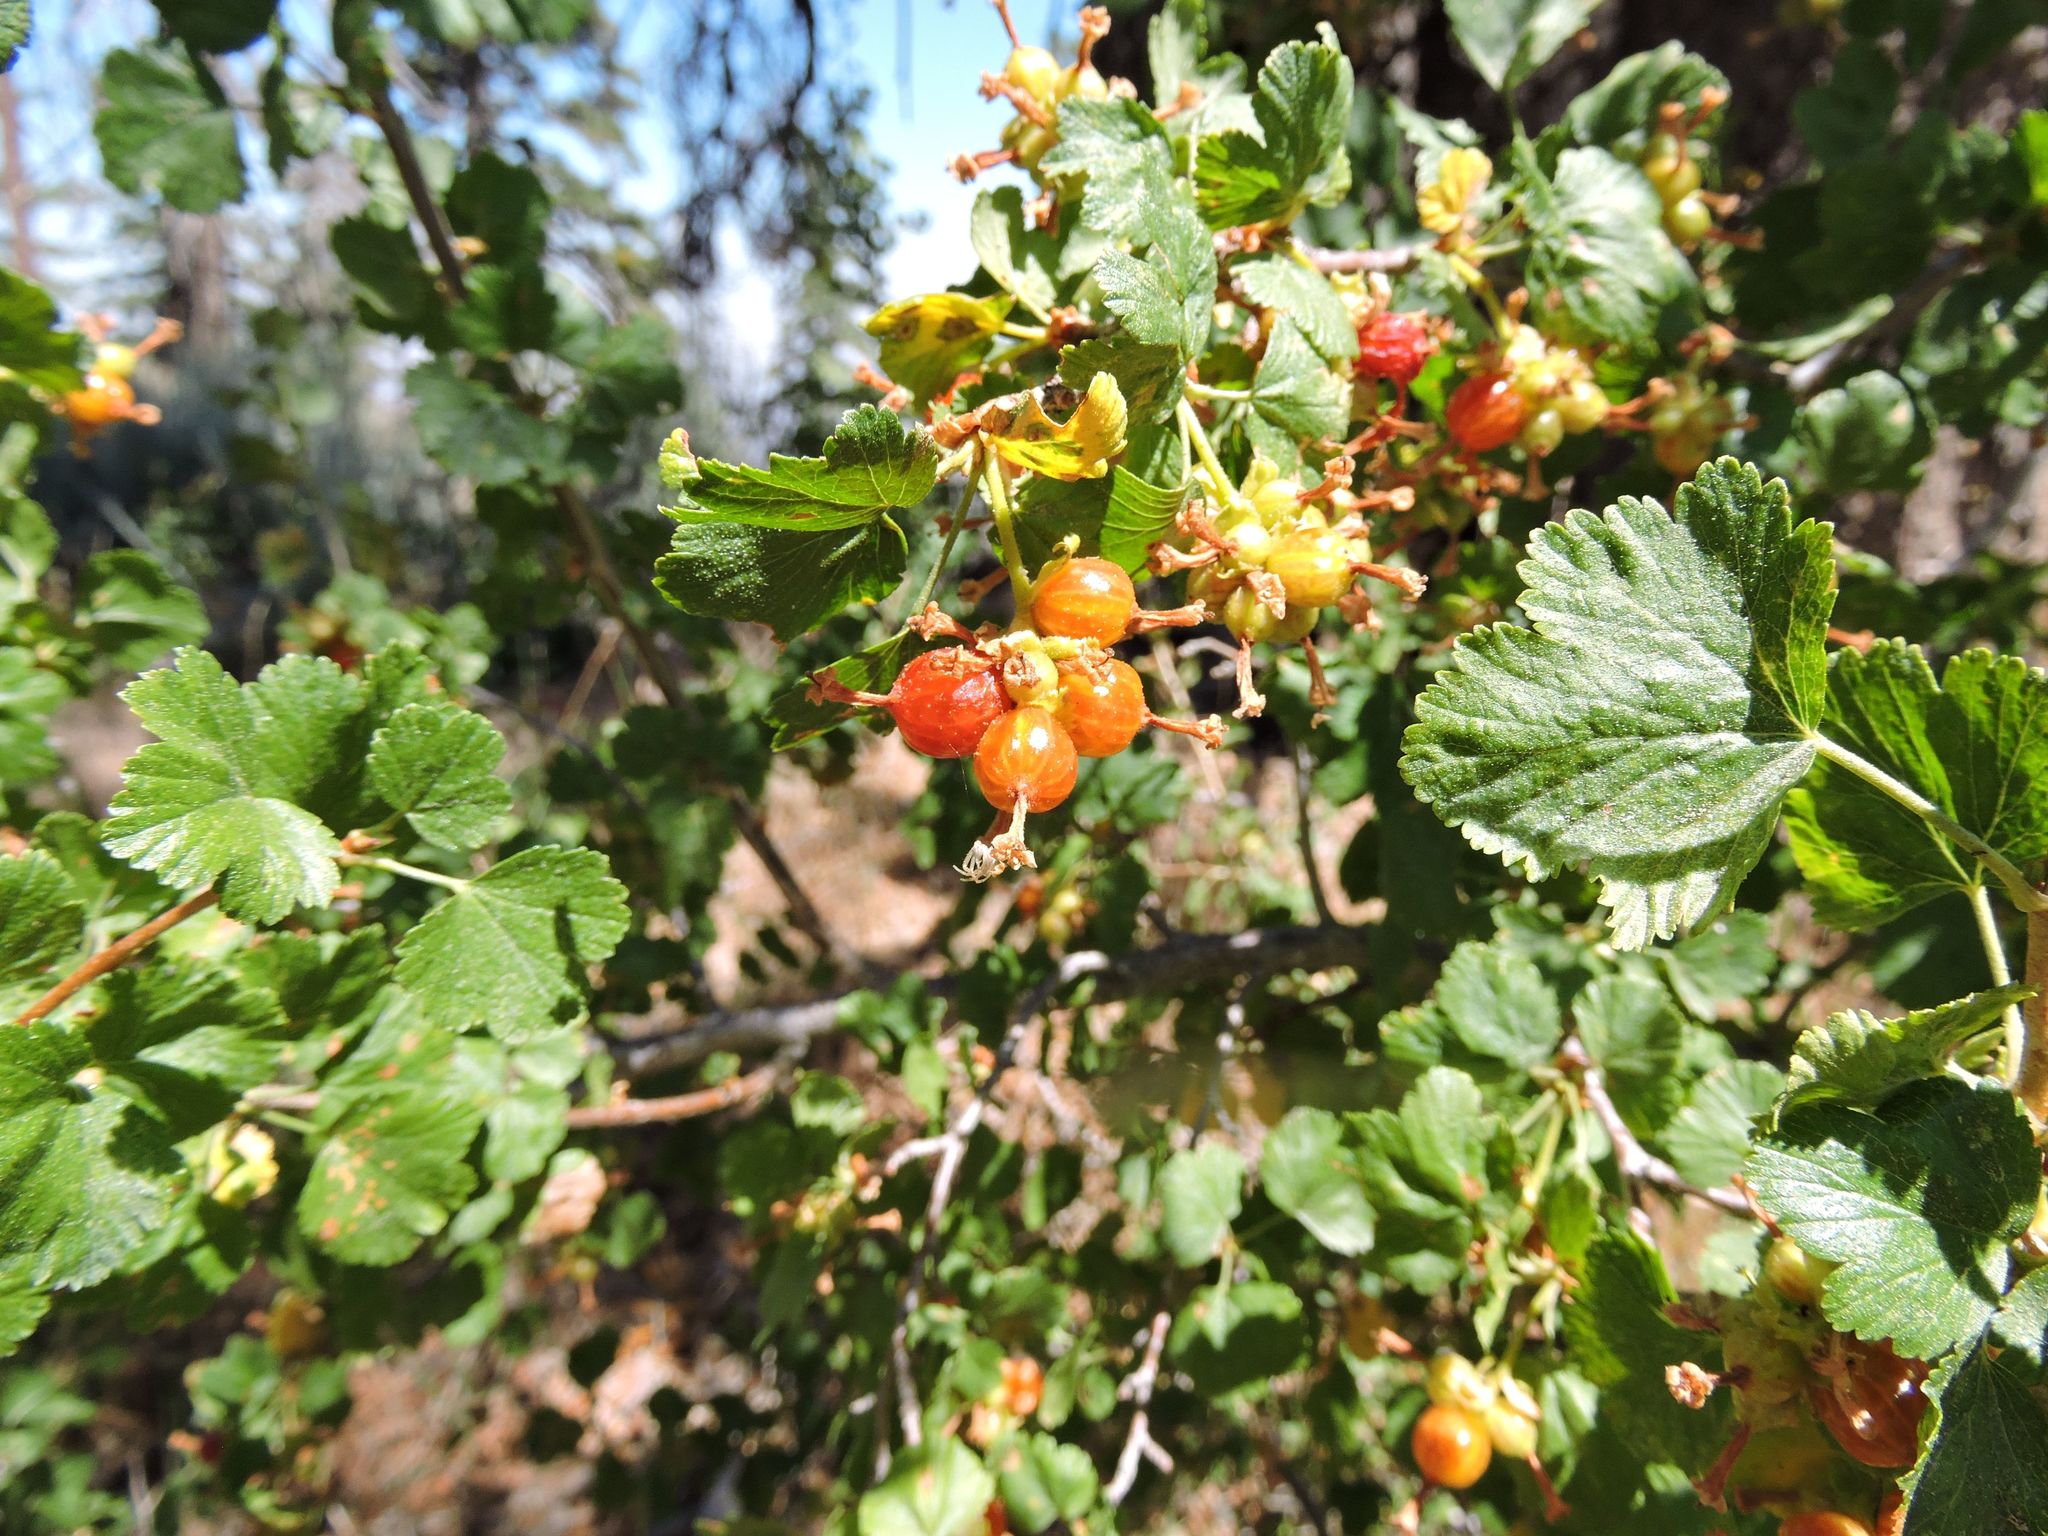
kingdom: Plantae
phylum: Tracheophyta
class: Magnoliopsida
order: Saxifragales
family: Grossulariaceae
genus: Ribes
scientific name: Ribes cereum
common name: Wax currant
